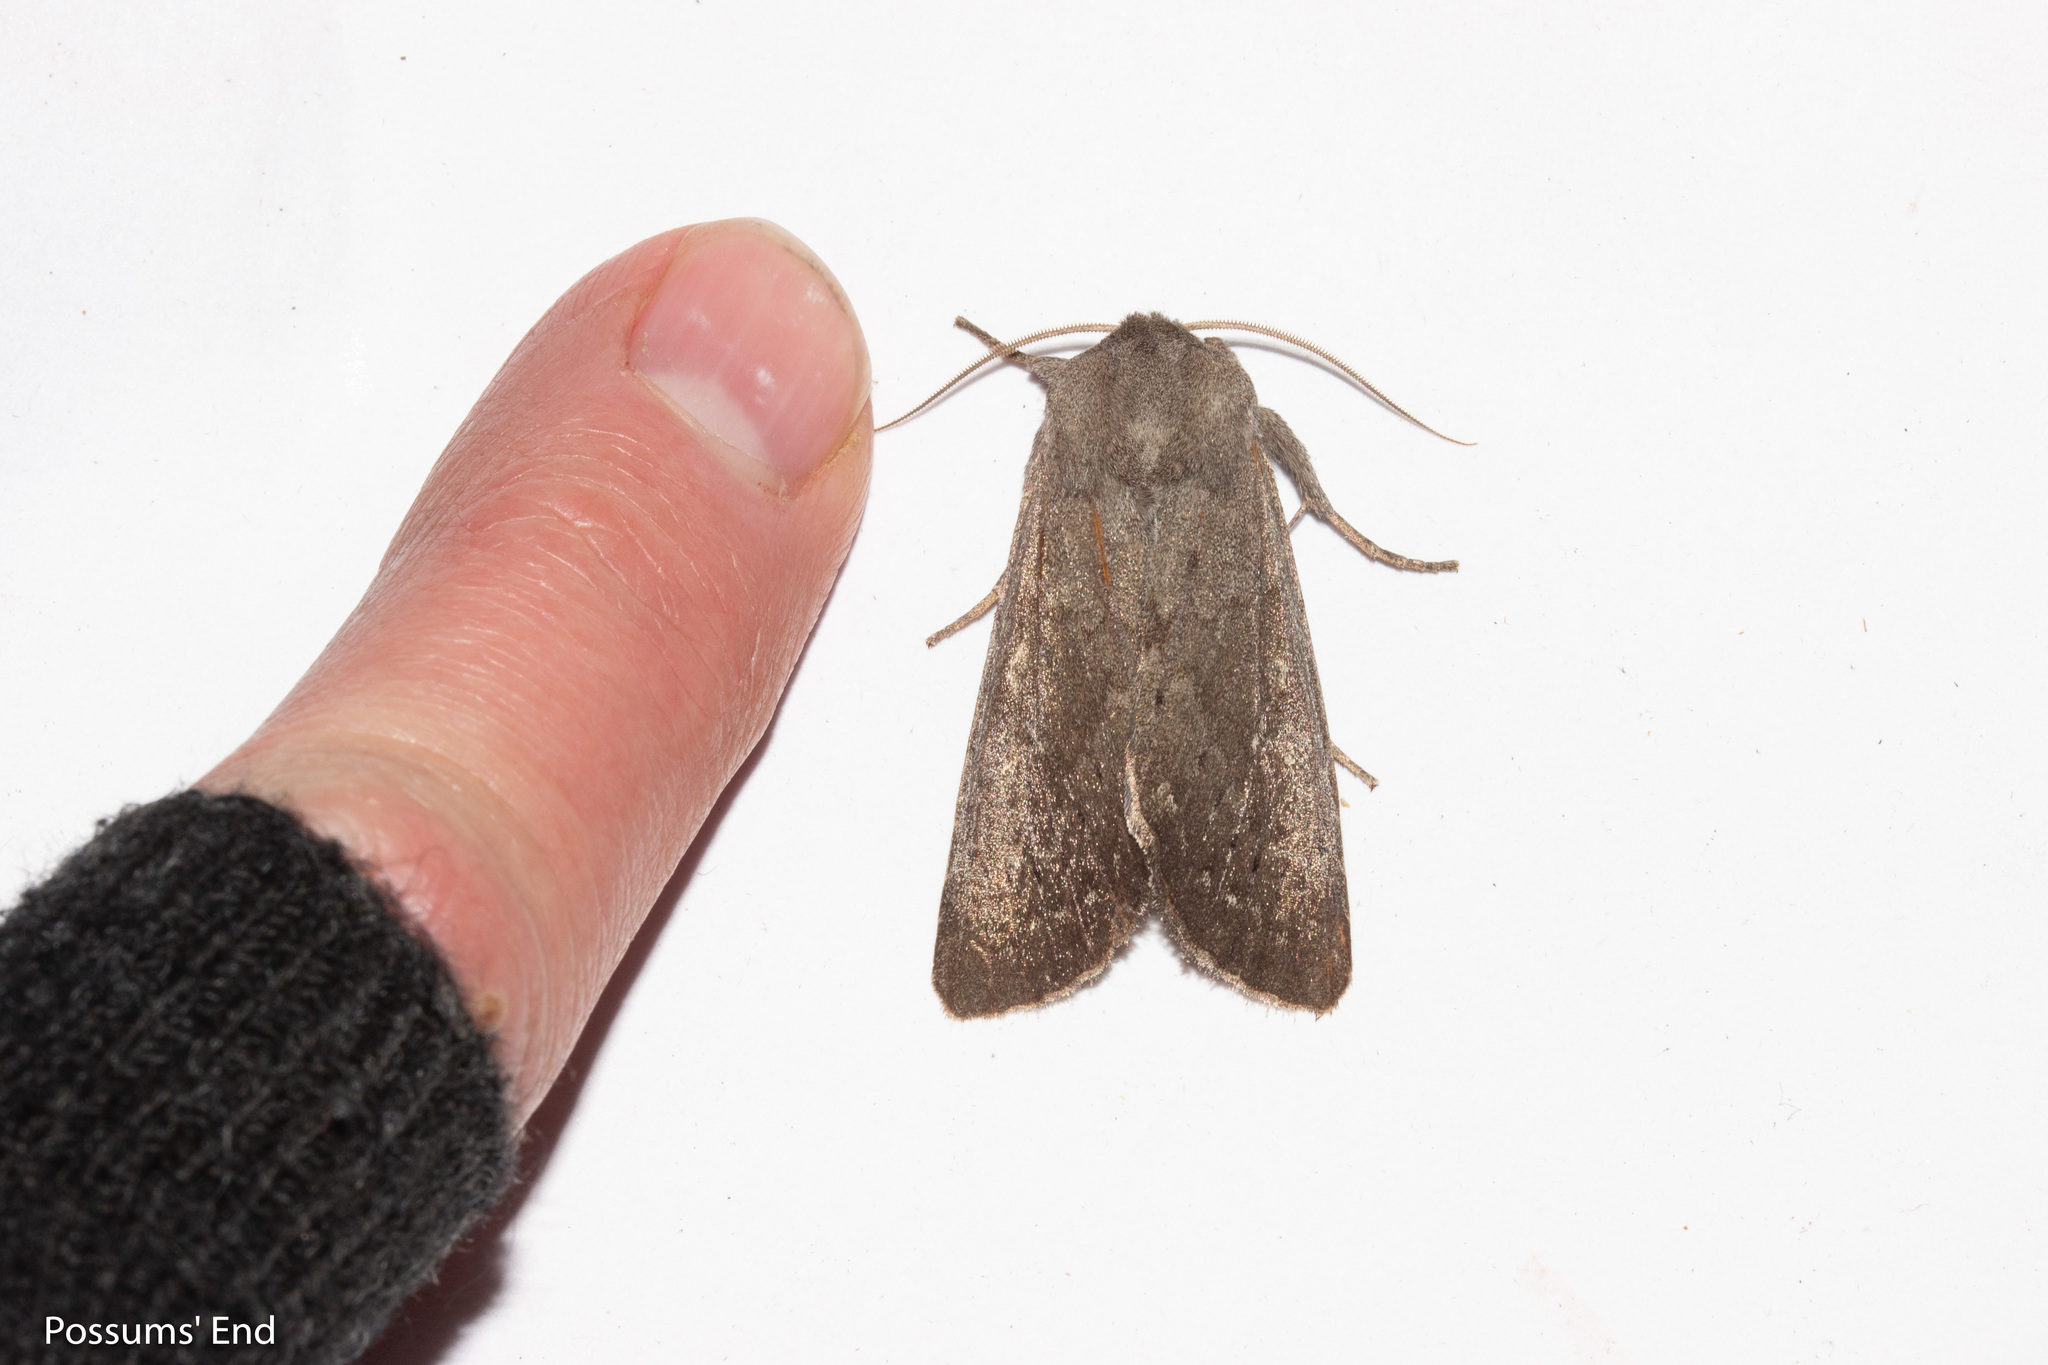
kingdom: Animalia
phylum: Arthropoda
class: Insecta
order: Lepidoptera
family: Noctuidae
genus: Ichneutica
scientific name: Ichneutica nullifera
